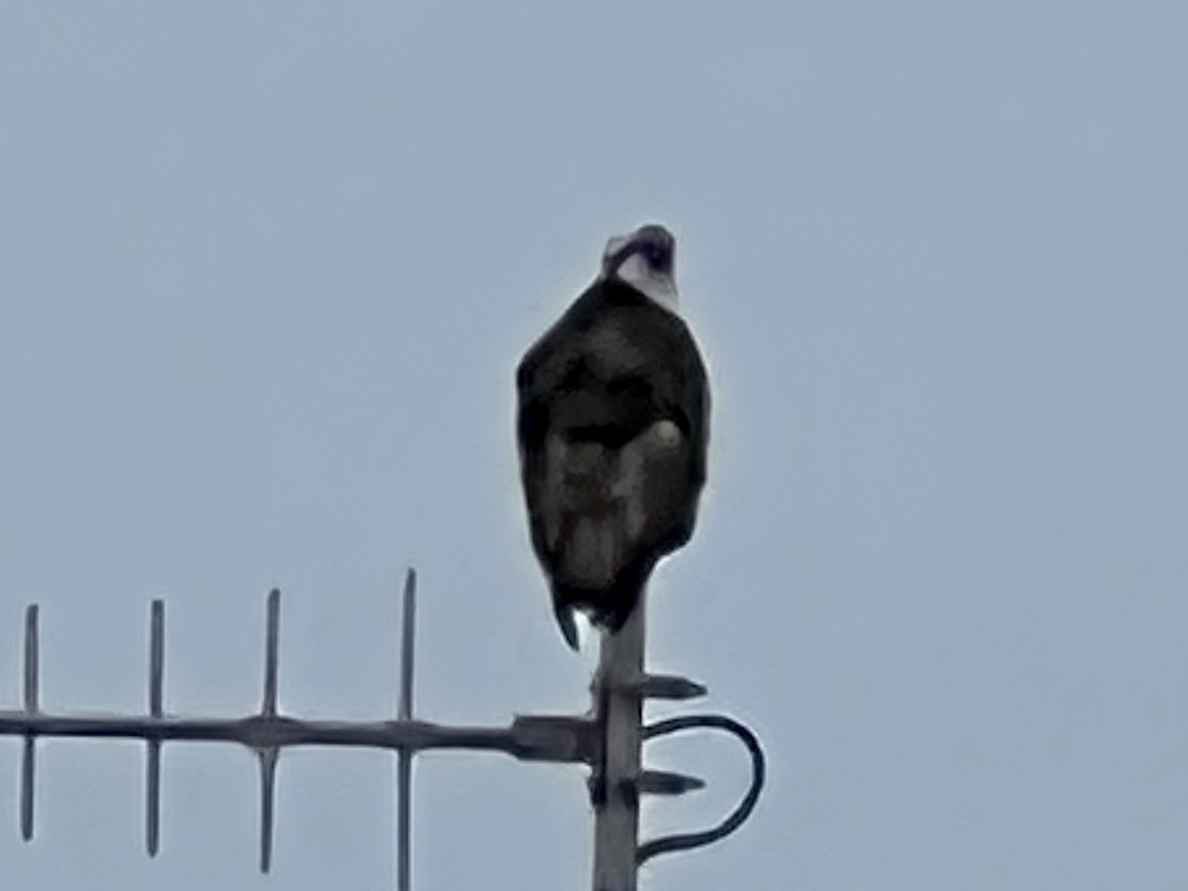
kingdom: Animalia
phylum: Chordata
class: Aves
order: Accipitriformes
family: Pandionidae
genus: Pandion
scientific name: Pandion haliaetus
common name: Osprey
